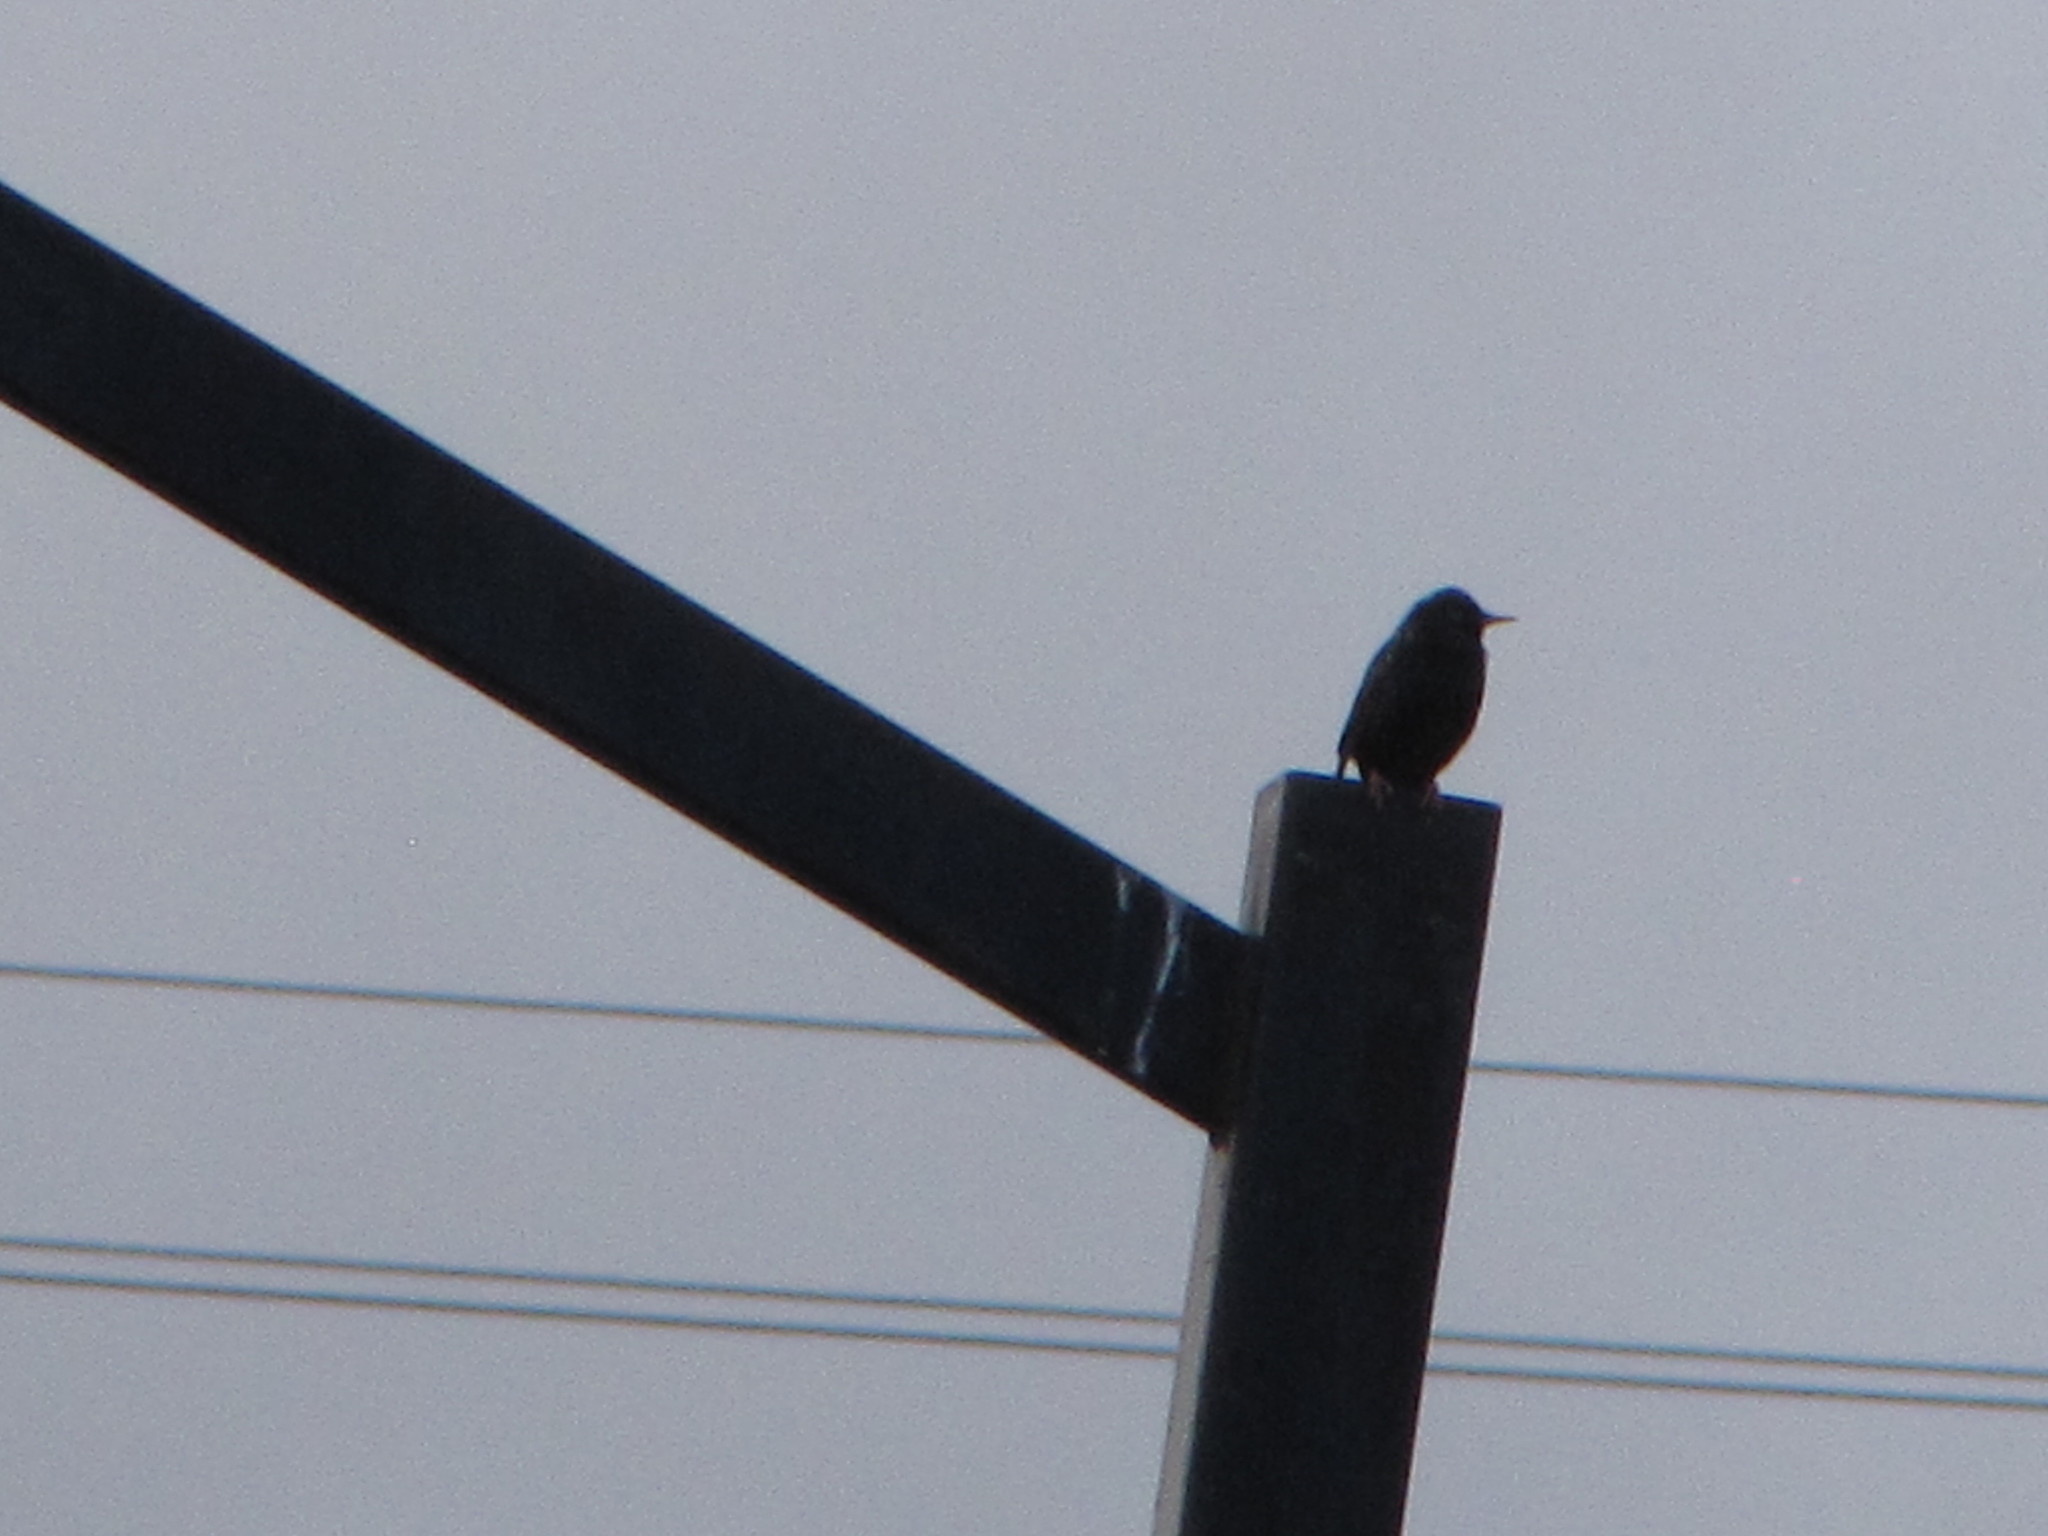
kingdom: Animalia
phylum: Chordata
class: Aves
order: Passeriformes
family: Sturnidae
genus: Sturnus
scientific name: Sturnus vulgaris
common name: Common starling
